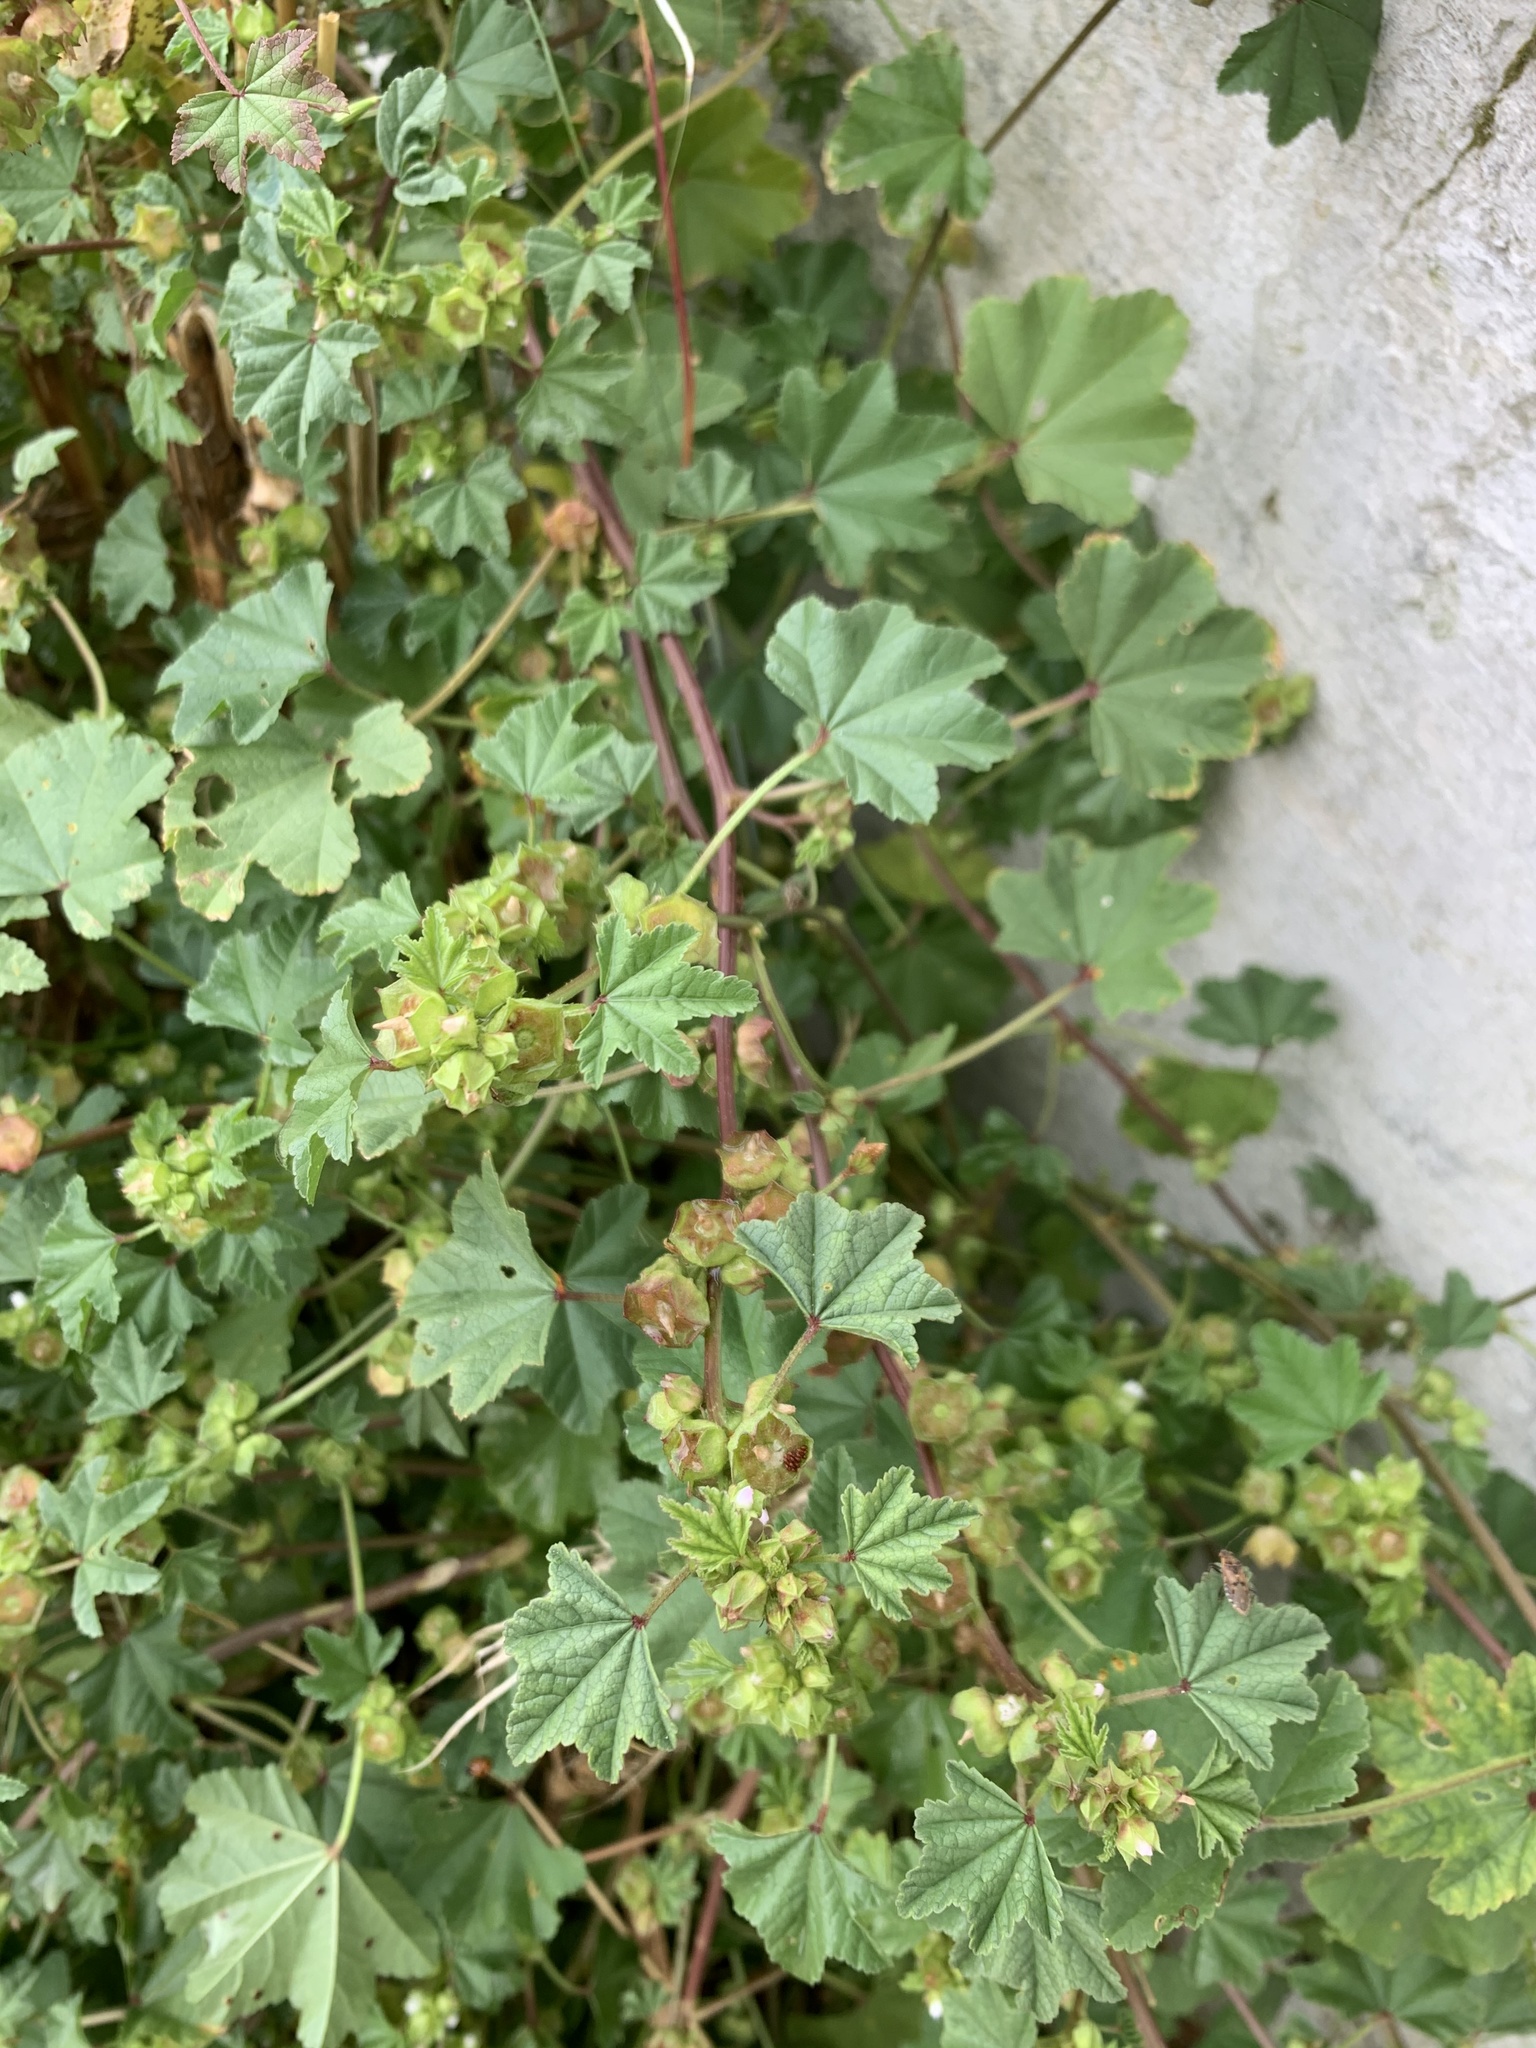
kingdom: Plantae
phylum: Tracheophyta
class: Magnoliopsida
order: Malvales
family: Malvaceae
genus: Malva
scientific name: Malva parviflora
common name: Least mallow
